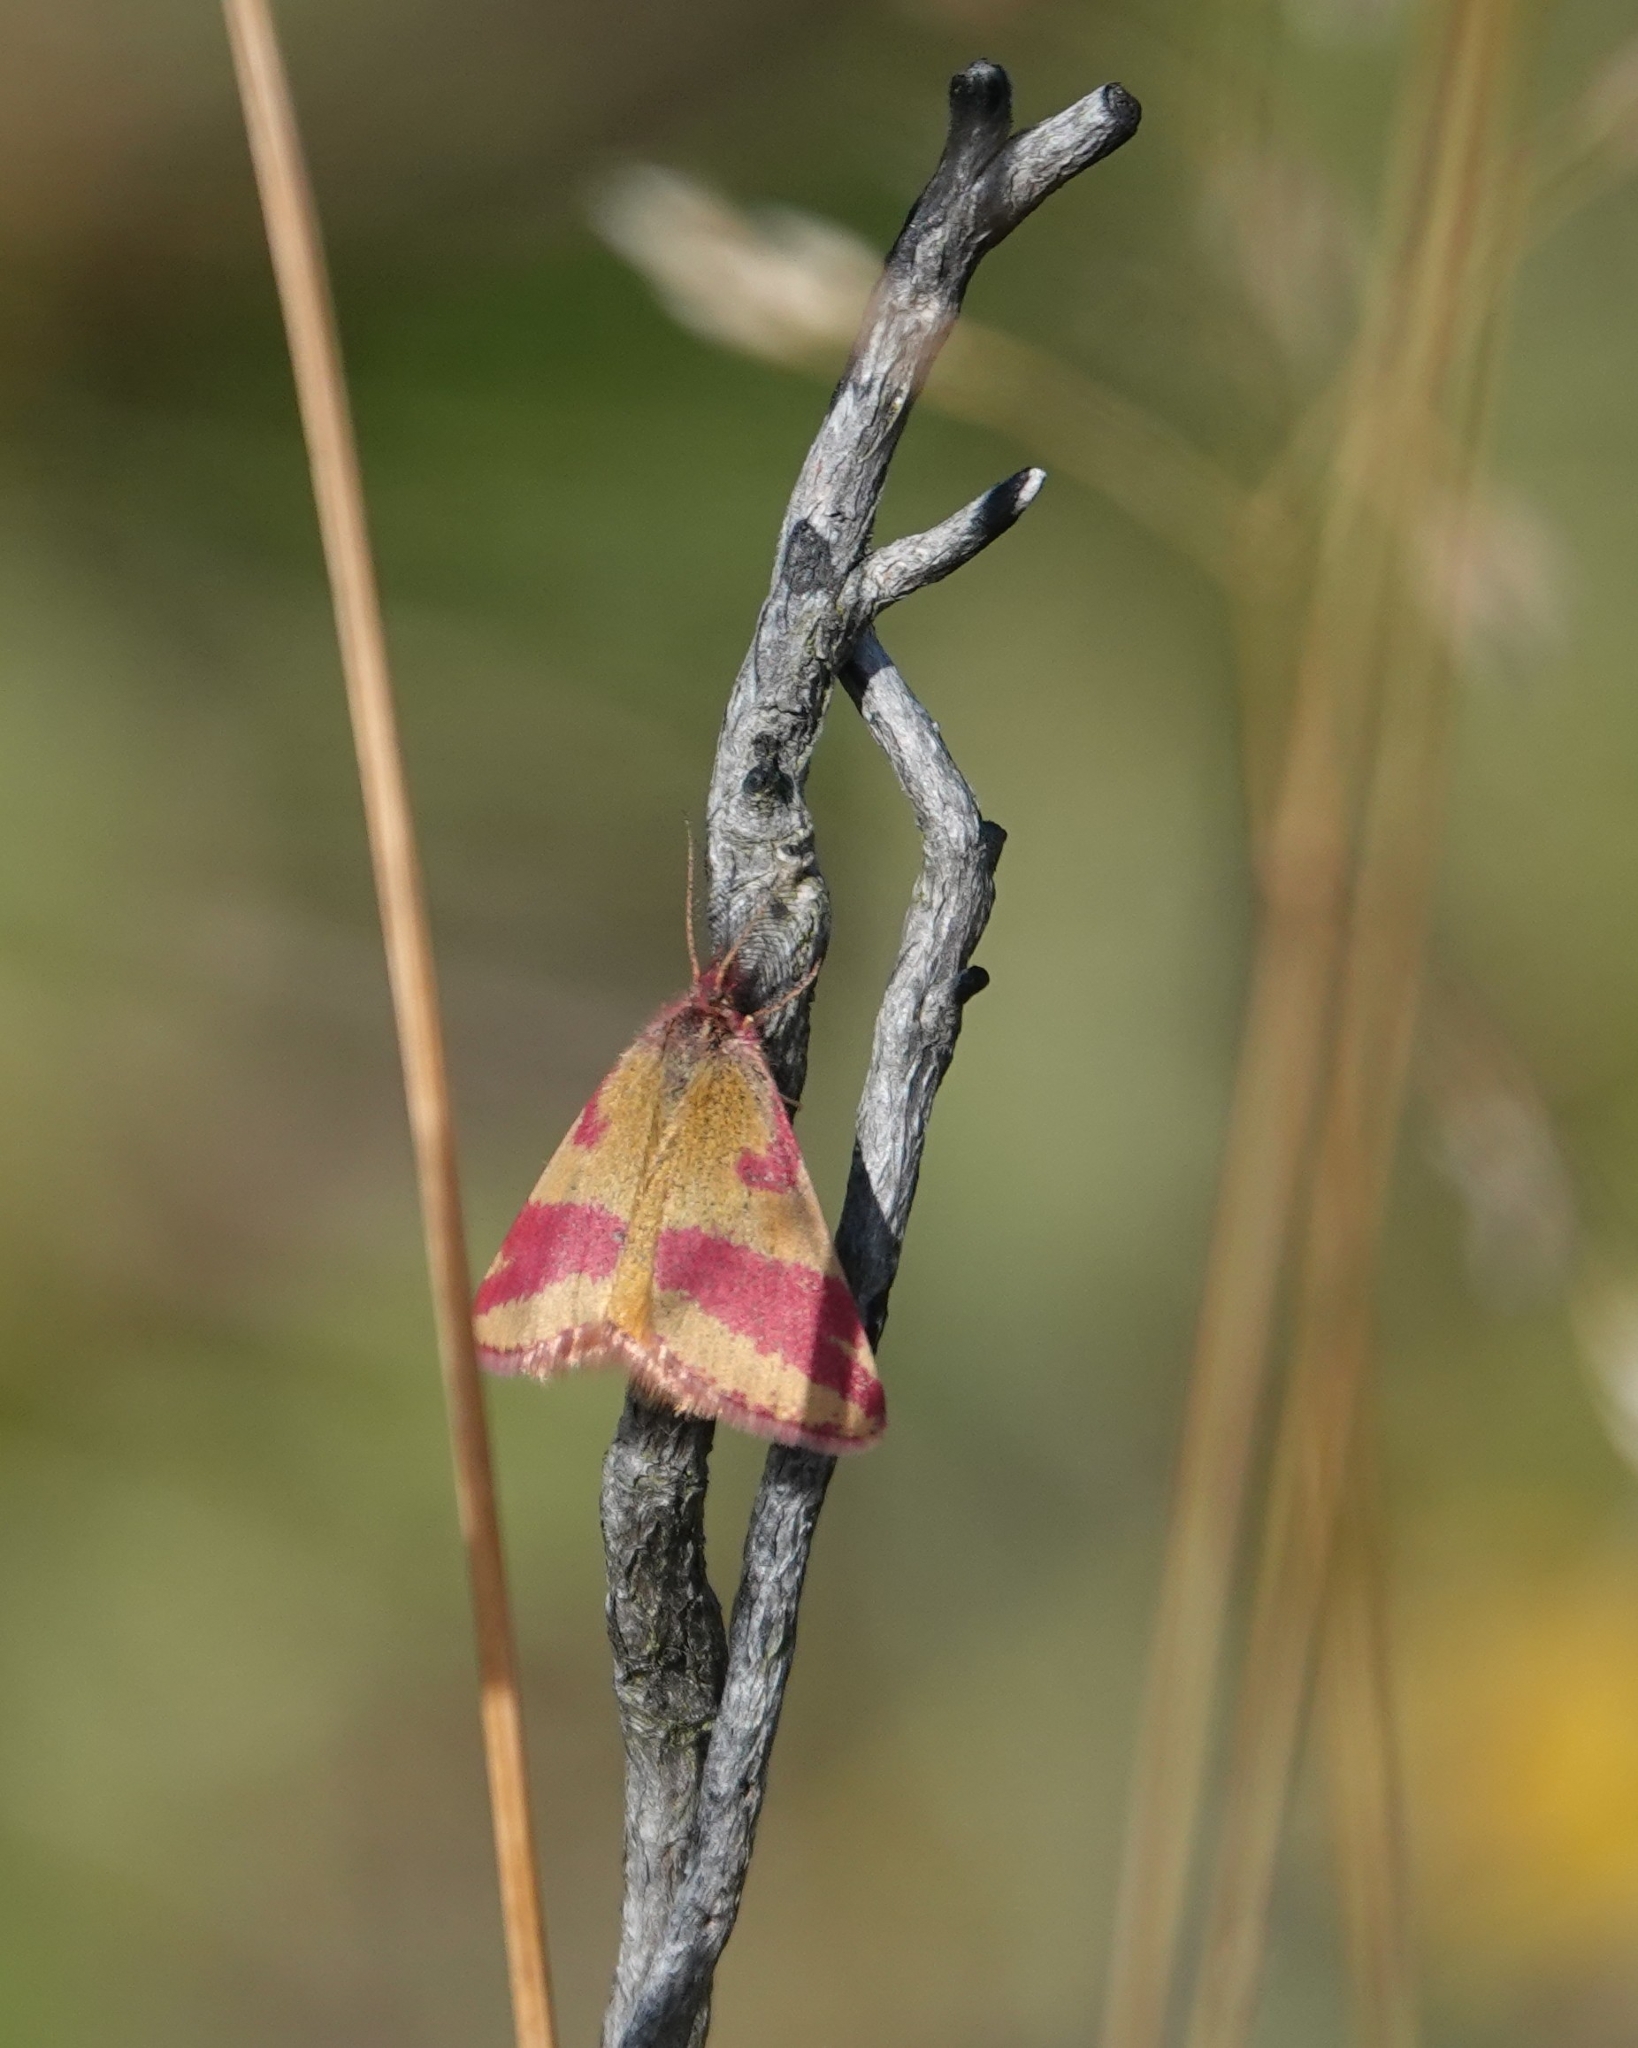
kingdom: Animalia
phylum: Arthropoda
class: Insecta
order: Lepidoptera
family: Geometridae
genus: Lythria
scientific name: Lythria cruentaria
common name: Purple-barred yellow
